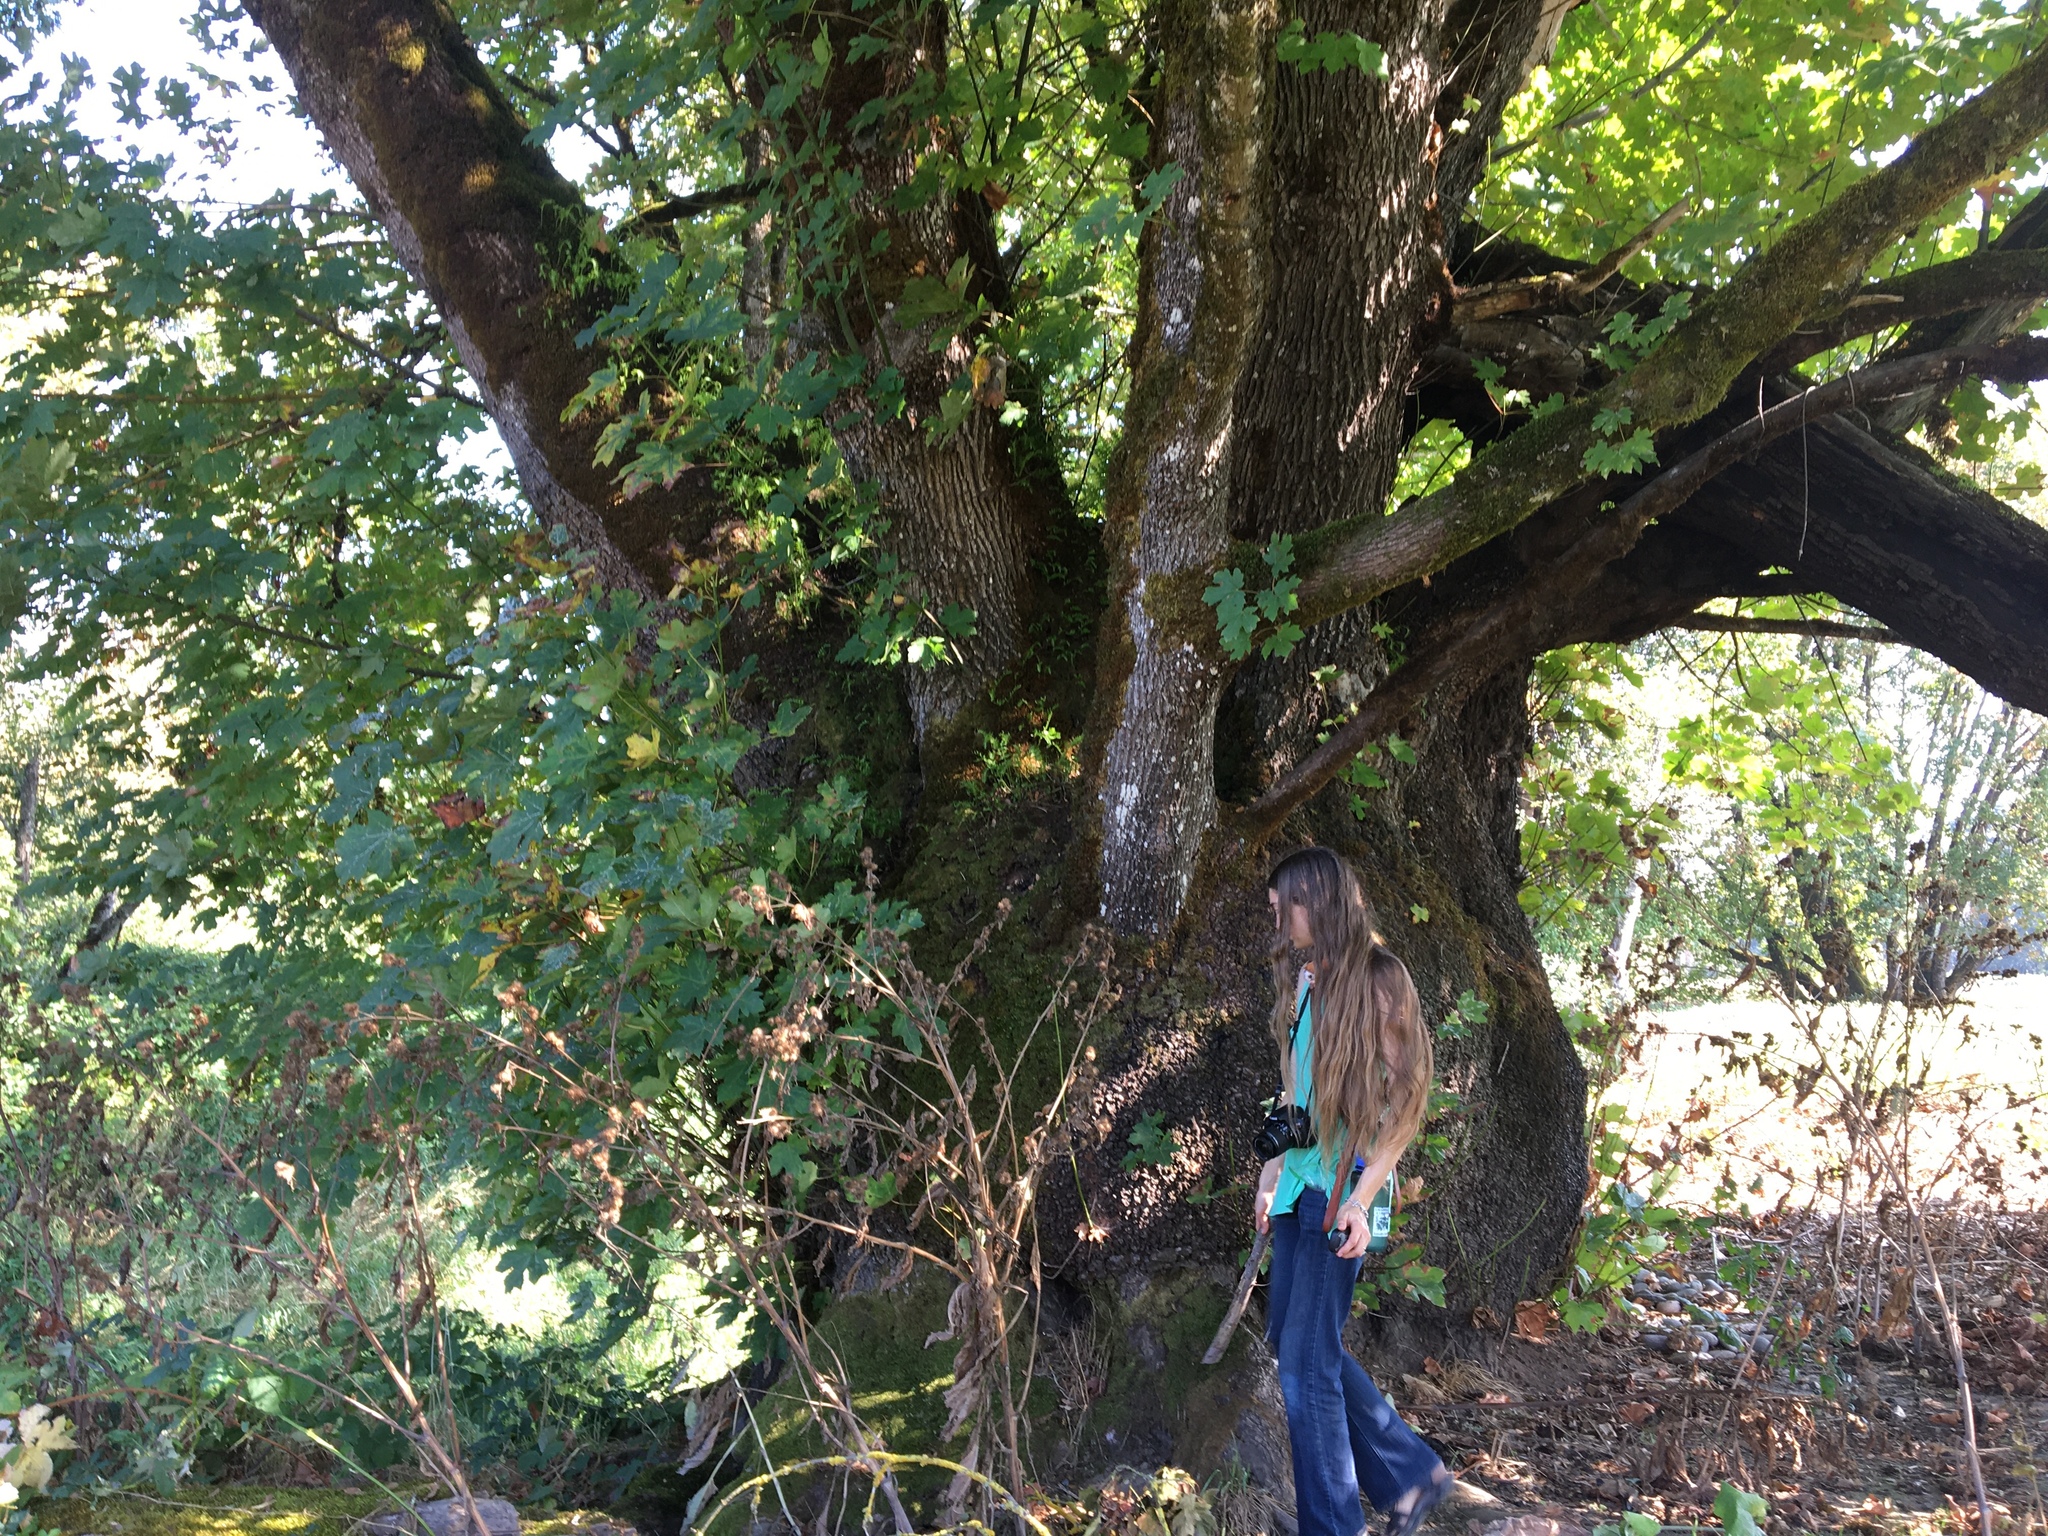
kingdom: Plantae
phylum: Tracheophyta
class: Magnoliopsida
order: Sapindales
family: Sapindaceae
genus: Acer
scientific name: Acer macrophyllum
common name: Oregon maple
